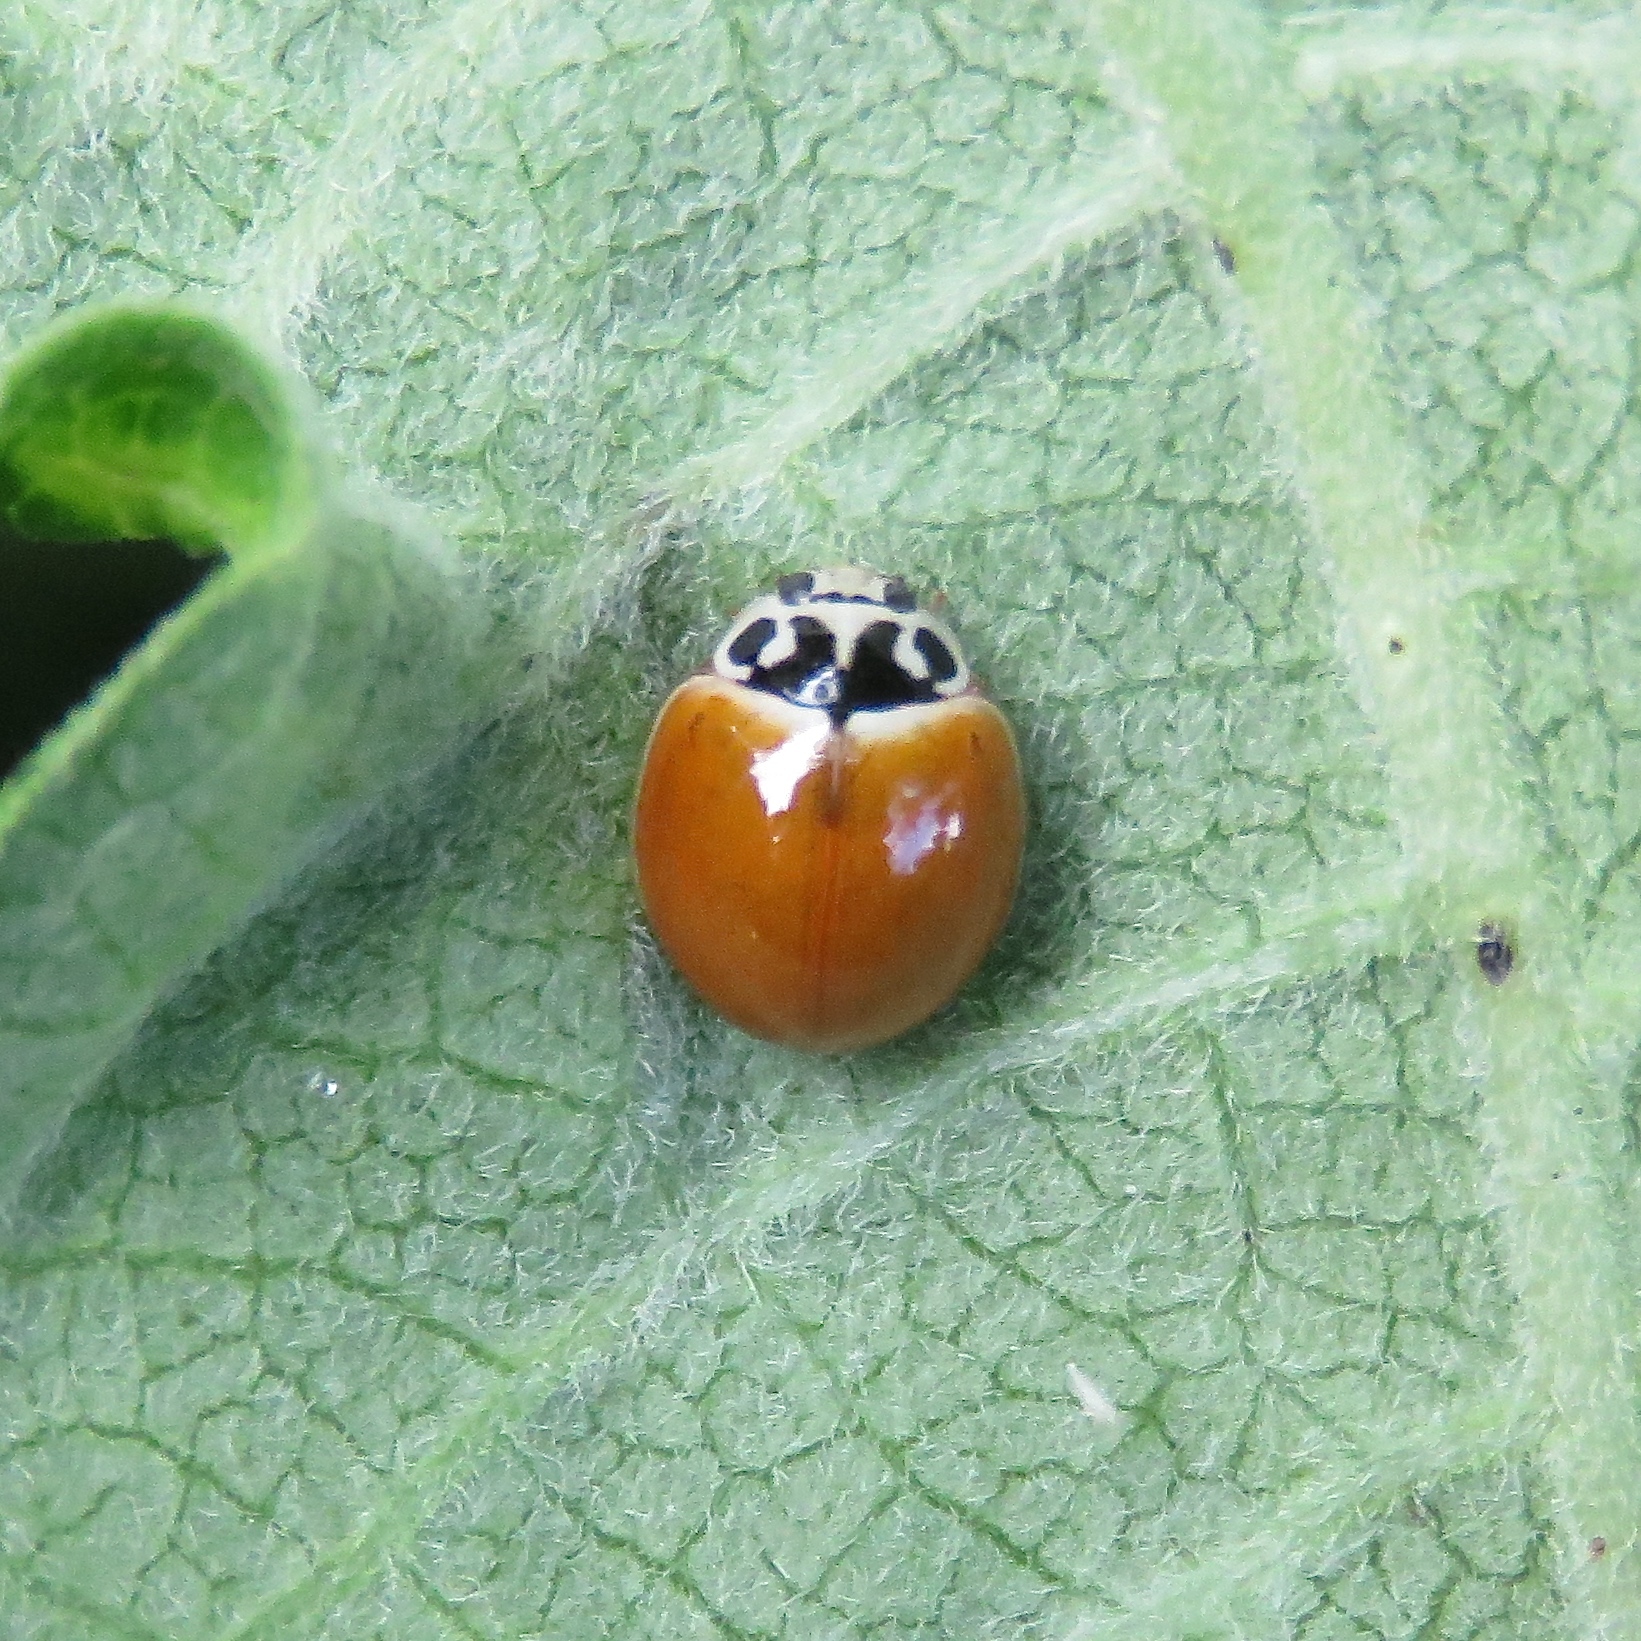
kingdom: Animalia
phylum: Arthropoda
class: Insecta
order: Coleoptera
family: Coccinellidae
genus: Cycloneda
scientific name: Cycloneda munda
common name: Polished lady beetle
